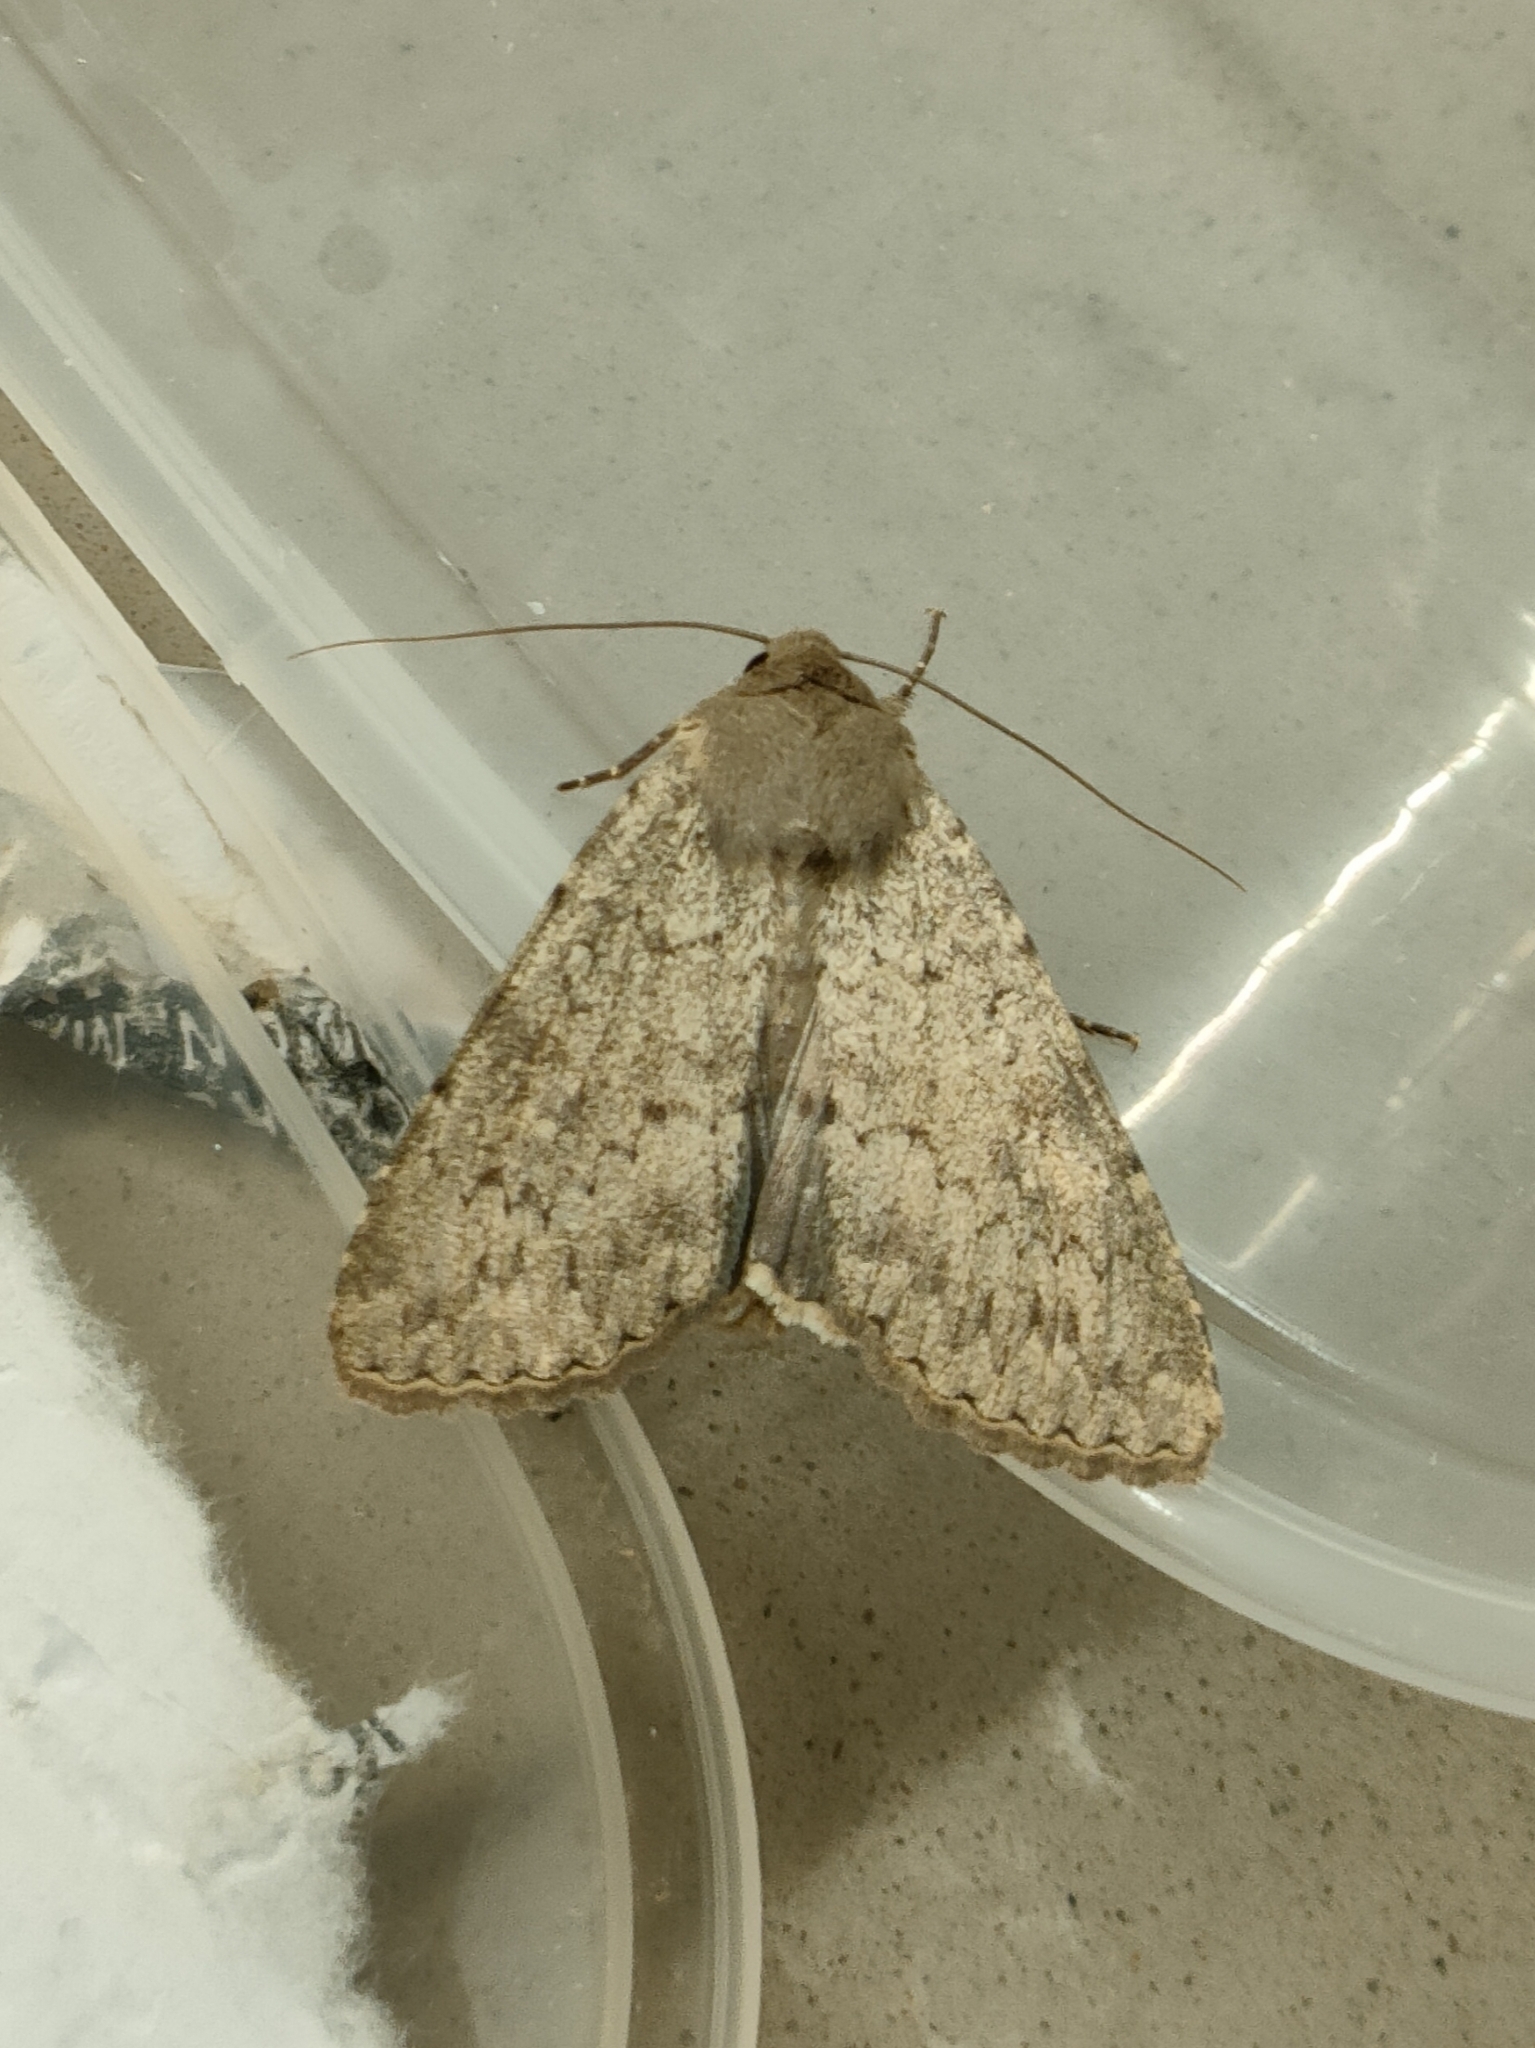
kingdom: Animalia
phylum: Arthropoda
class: Insecta
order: Lepidoptera
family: Noctuidae
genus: Eremohadena
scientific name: Eremohadena halimi
